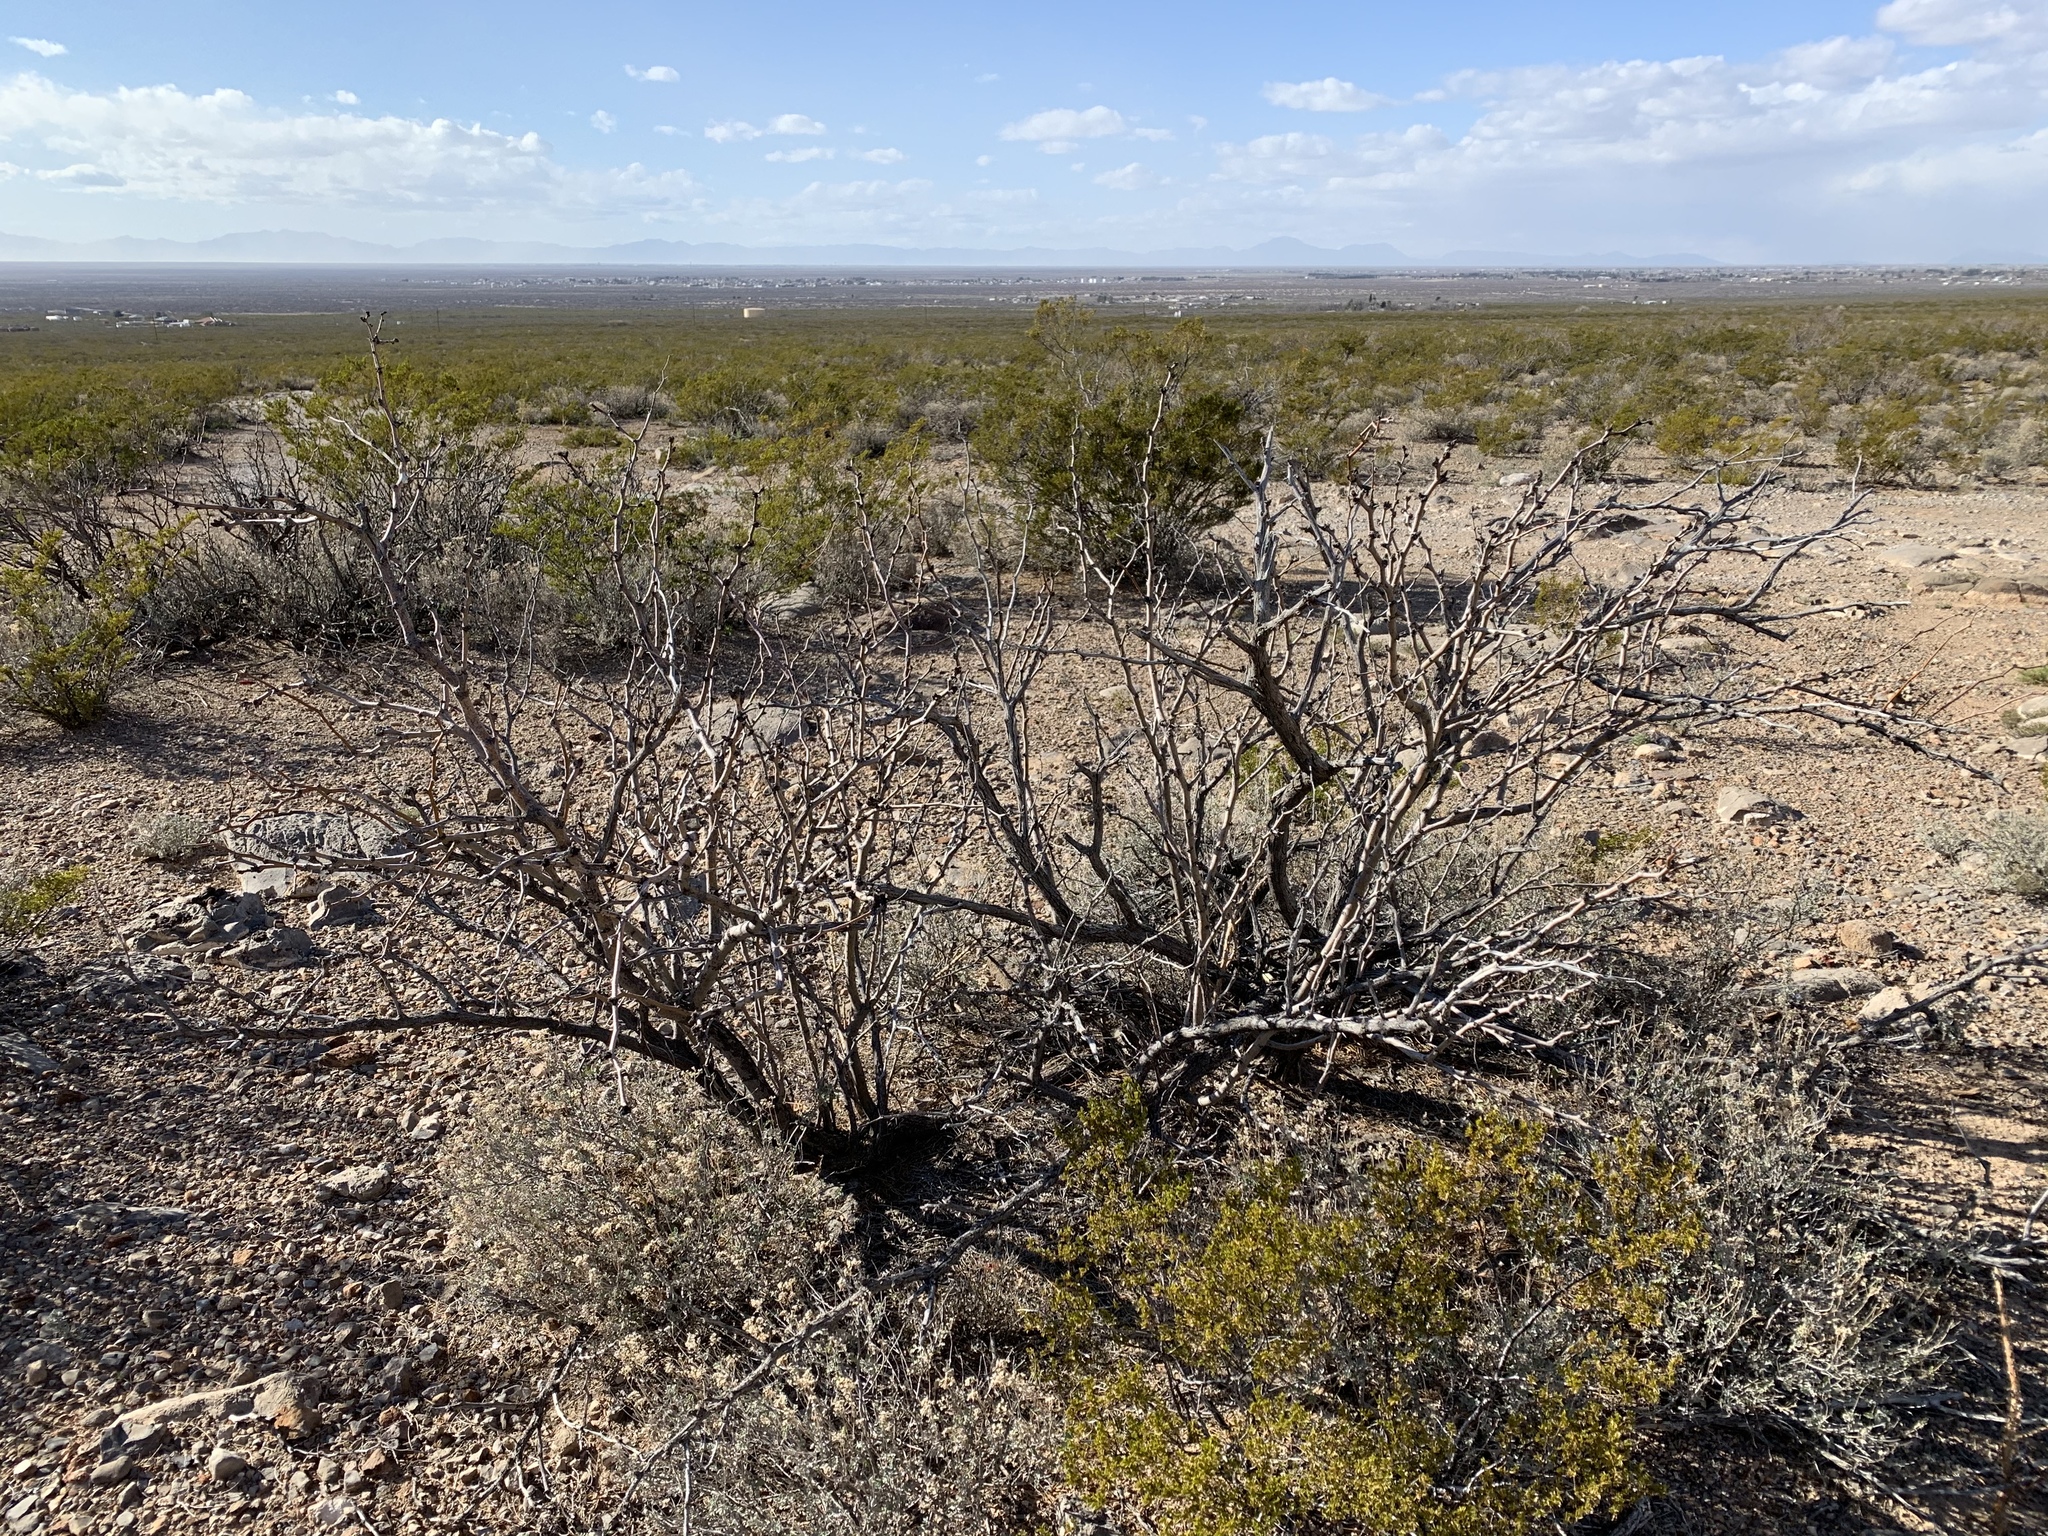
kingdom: Plantae
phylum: Tracheophyta
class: Magnoliopsida
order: Fabales
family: Fabaceae
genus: Prosopis
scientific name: Prosopis glandulosa
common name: Honey mesquite
